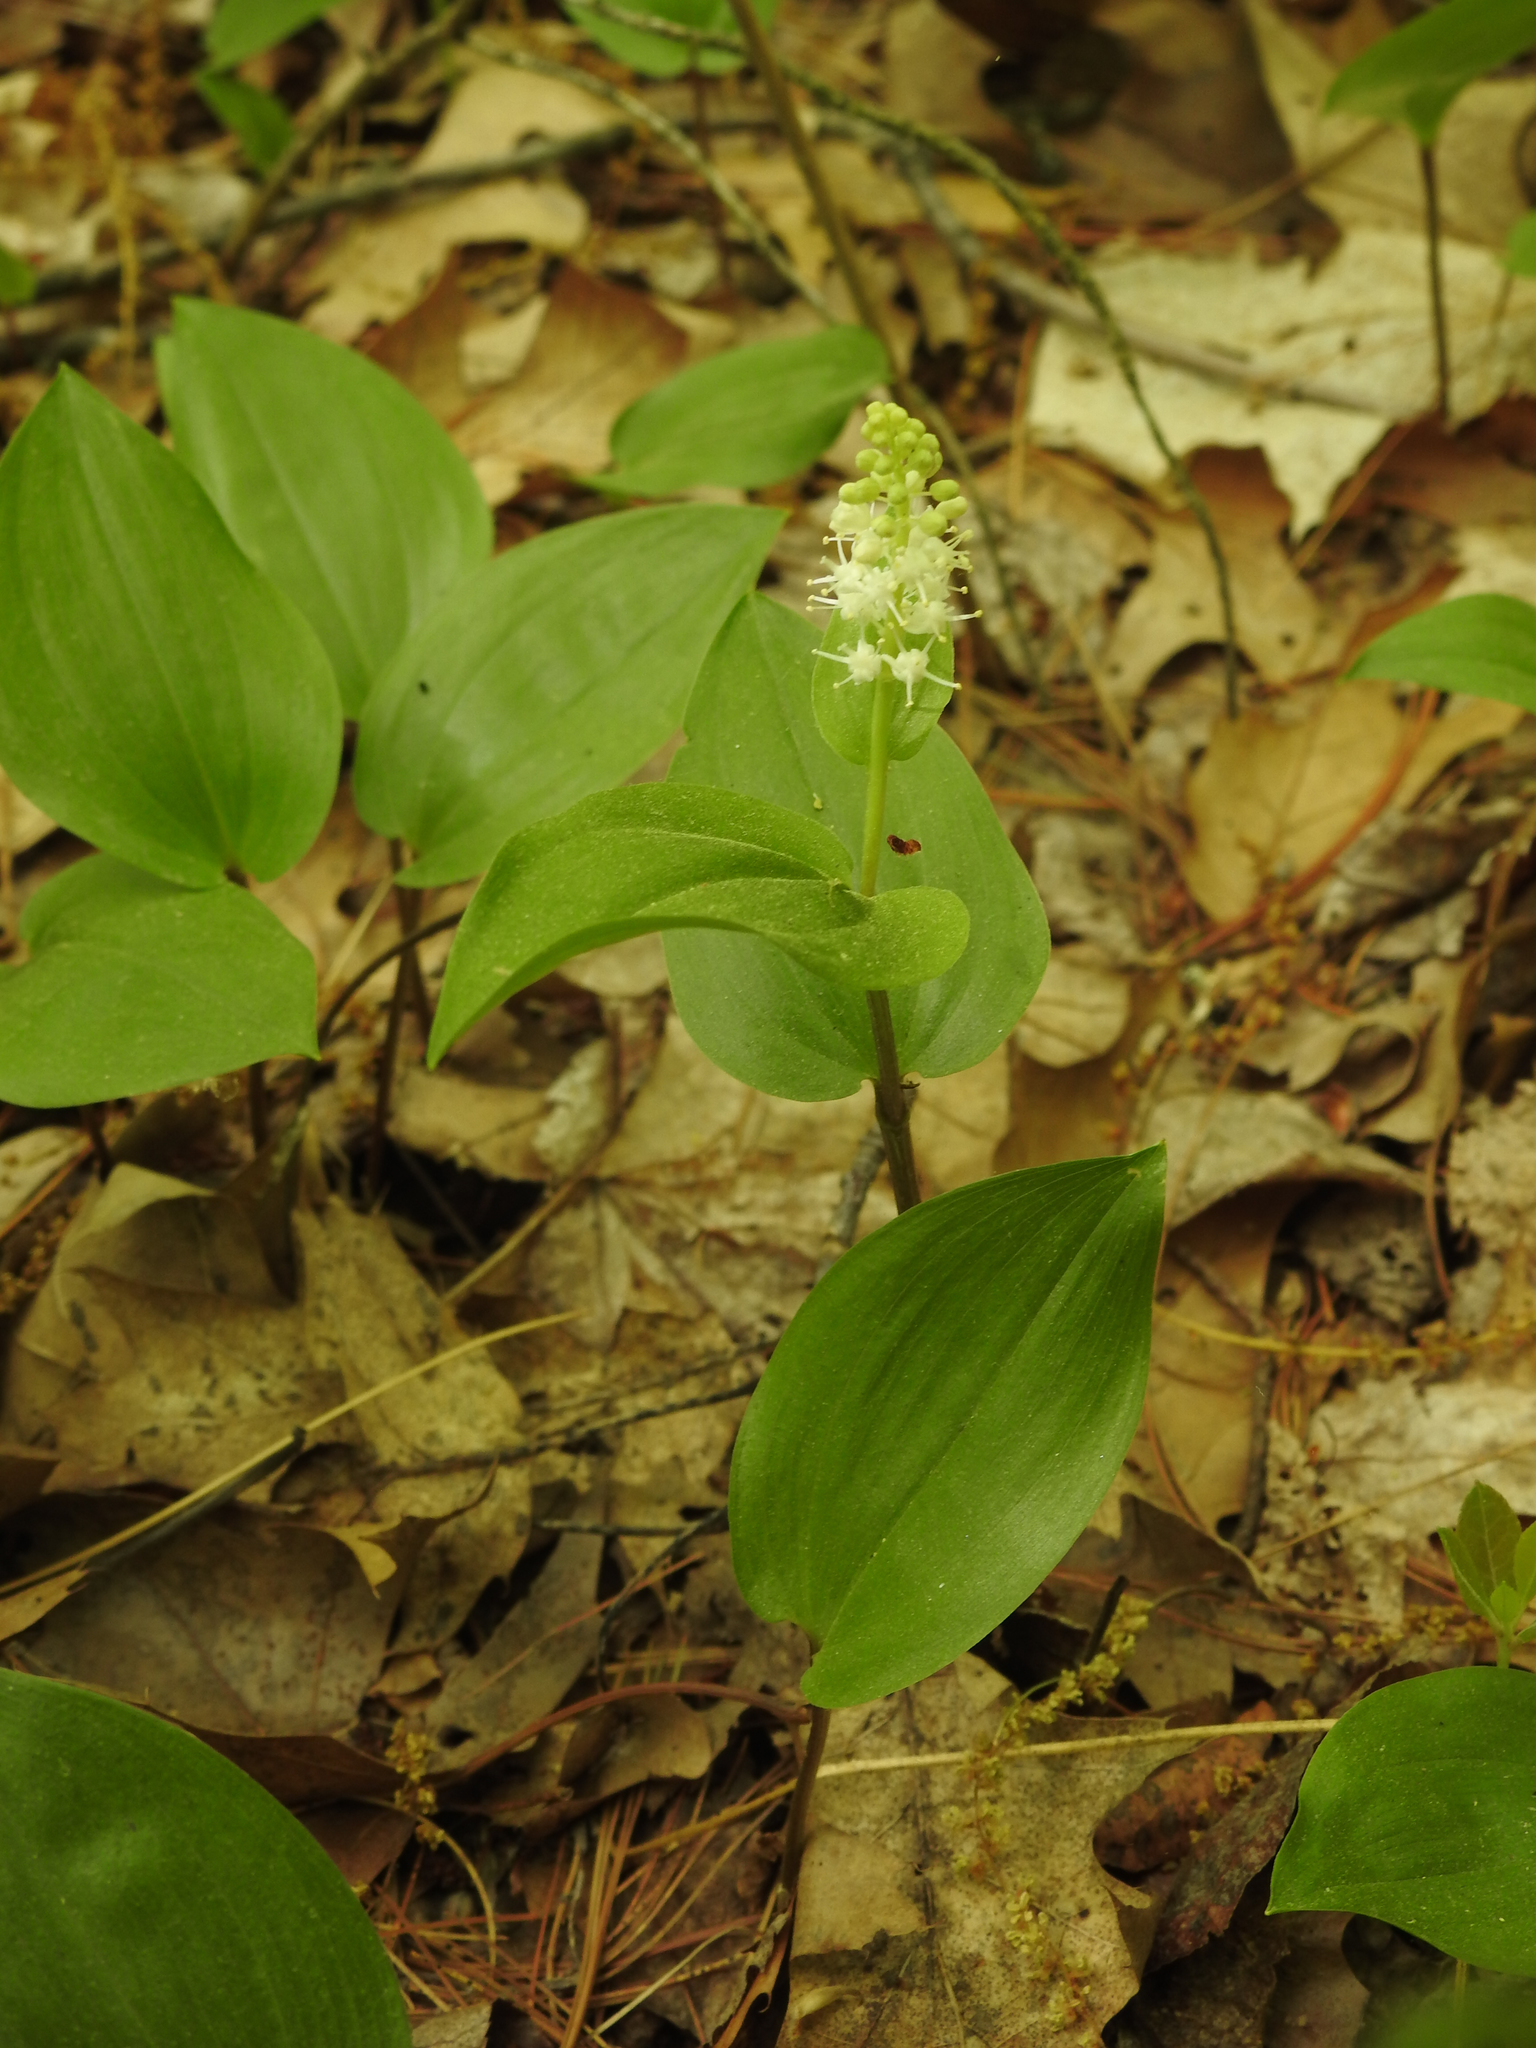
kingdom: Plantae
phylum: Tracheophyta
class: Liliopsida
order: Asparagales
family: Asparagaceae
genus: Maianthemum
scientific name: Maianthemum canadense
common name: False lily-of-the-valley
